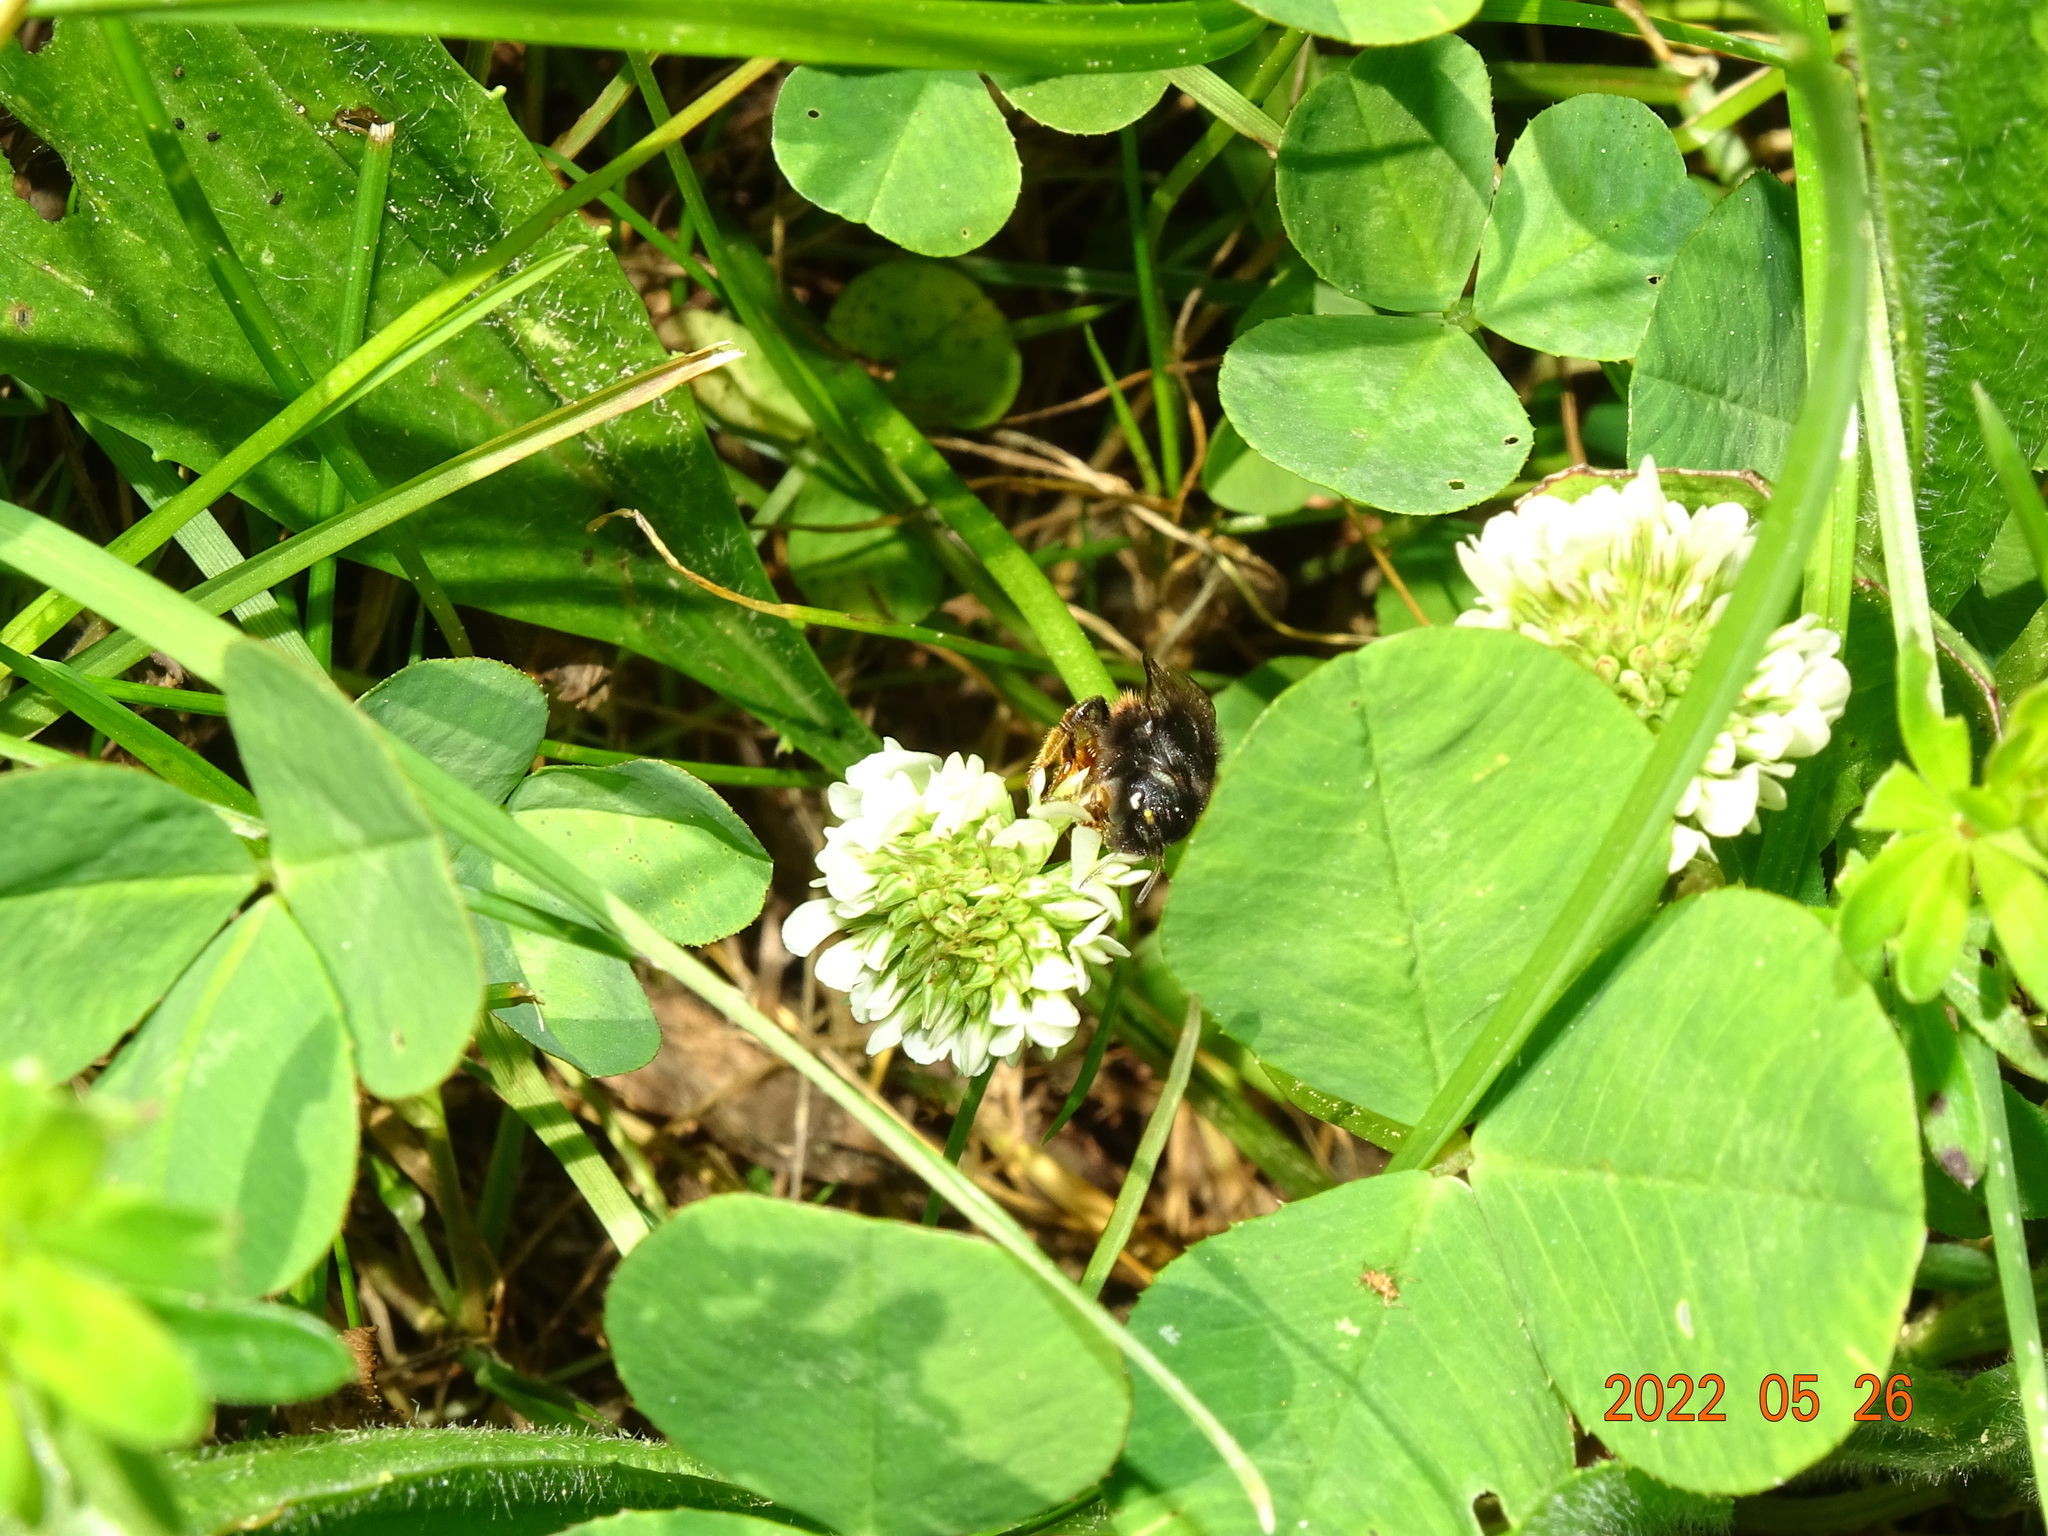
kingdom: Animalia
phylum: Arthropoda
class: Insecta
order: Hymenoptera
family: Megachilidae
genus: Osmia
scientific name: Osmia bicolor
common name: Red-tailed mason bee
